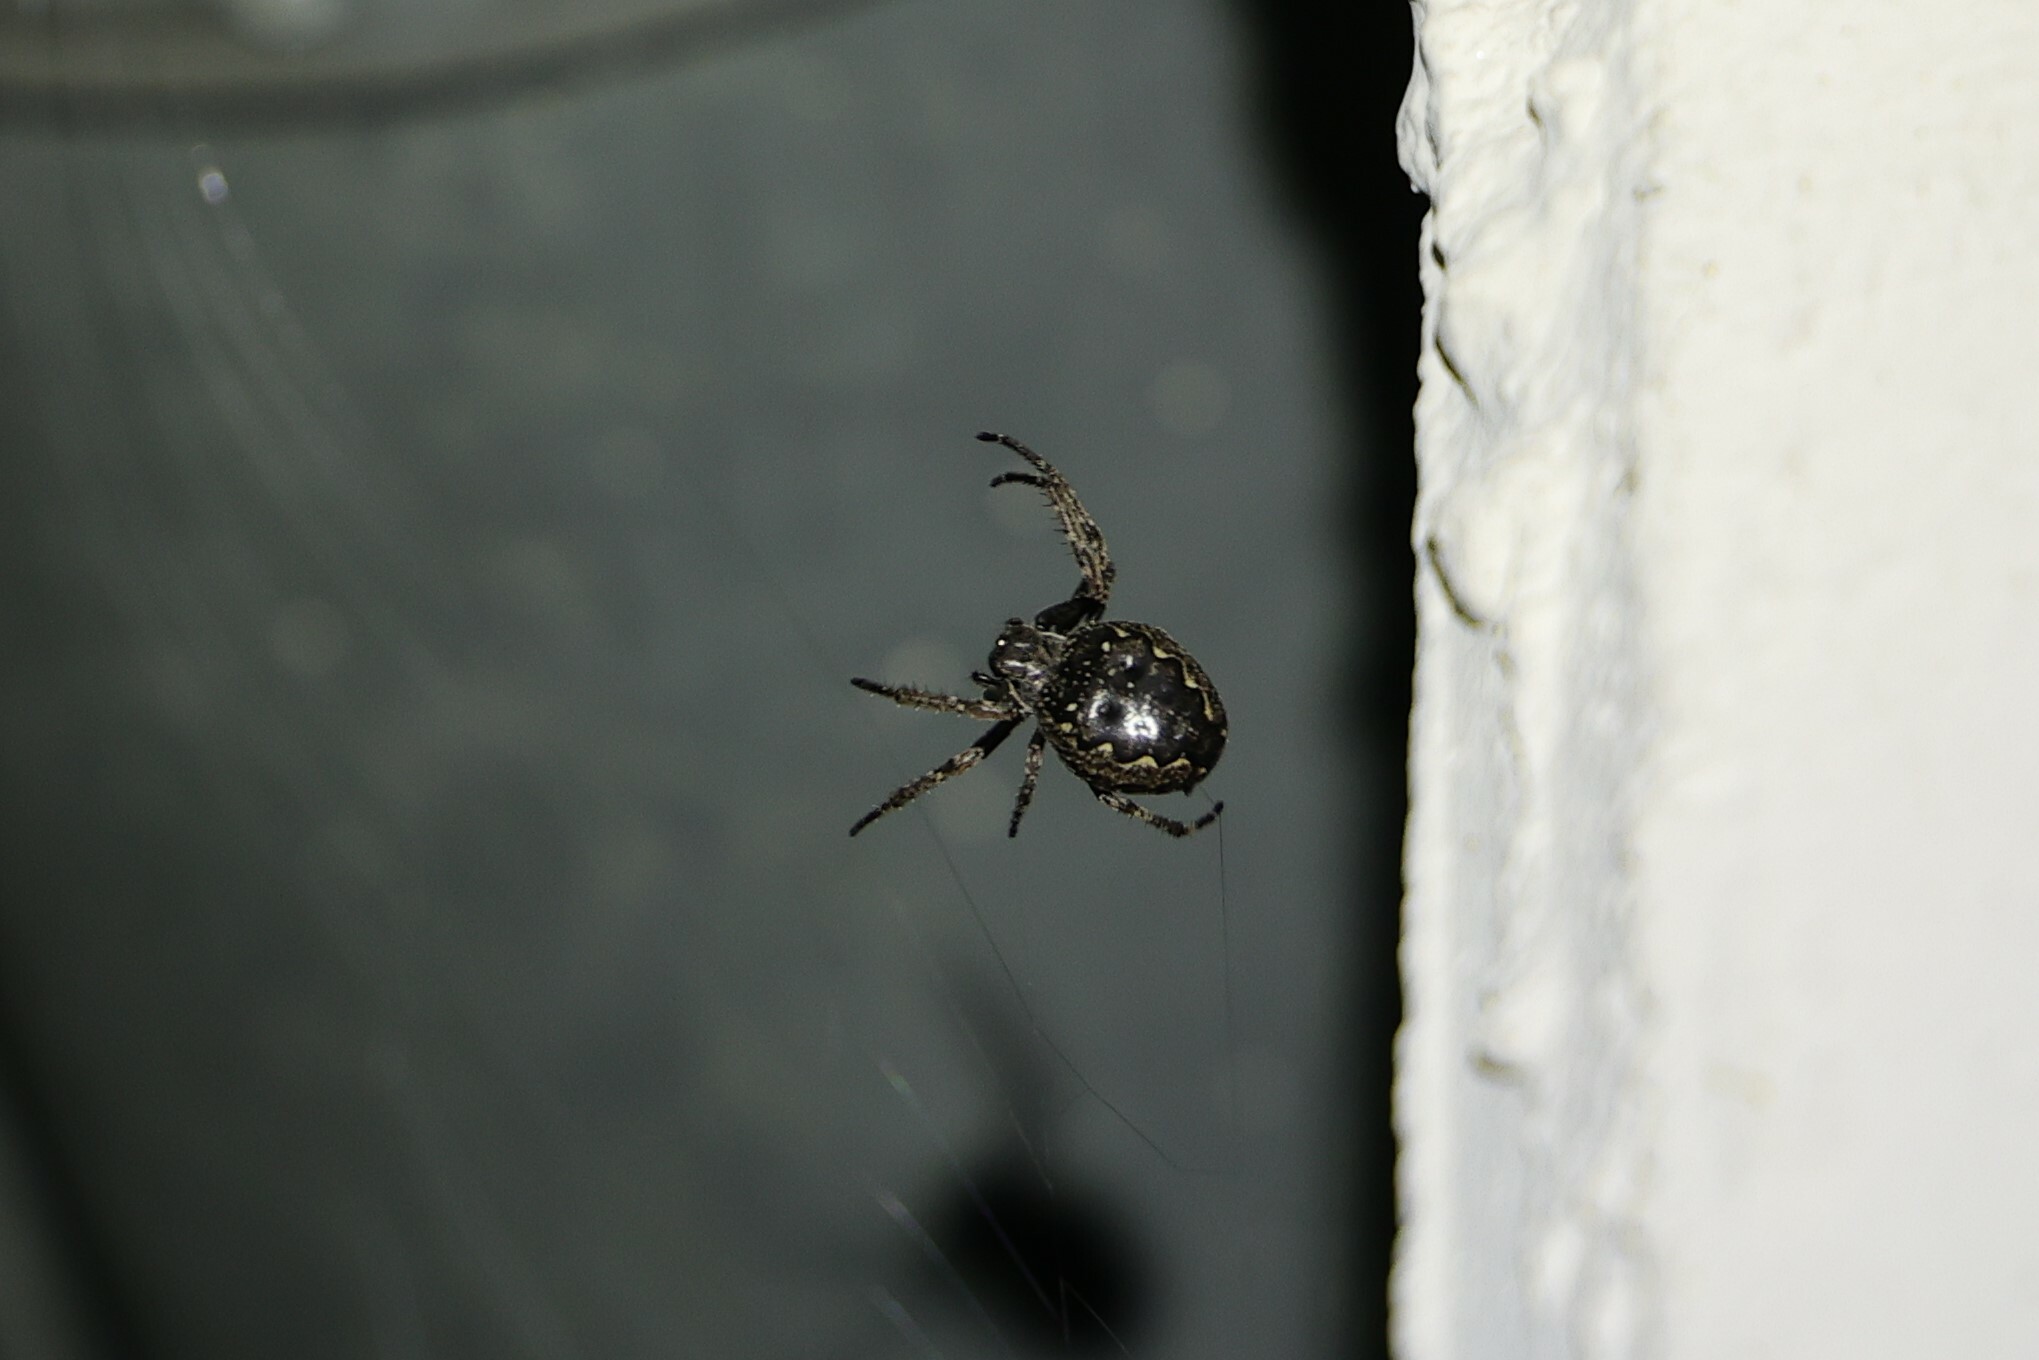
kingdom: Animalia
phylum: Arthropoda
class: Arachnida
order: Araneae
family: Araneidae
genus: Nuctenea
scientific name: Nuctenea umbratica
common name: Toad spider
